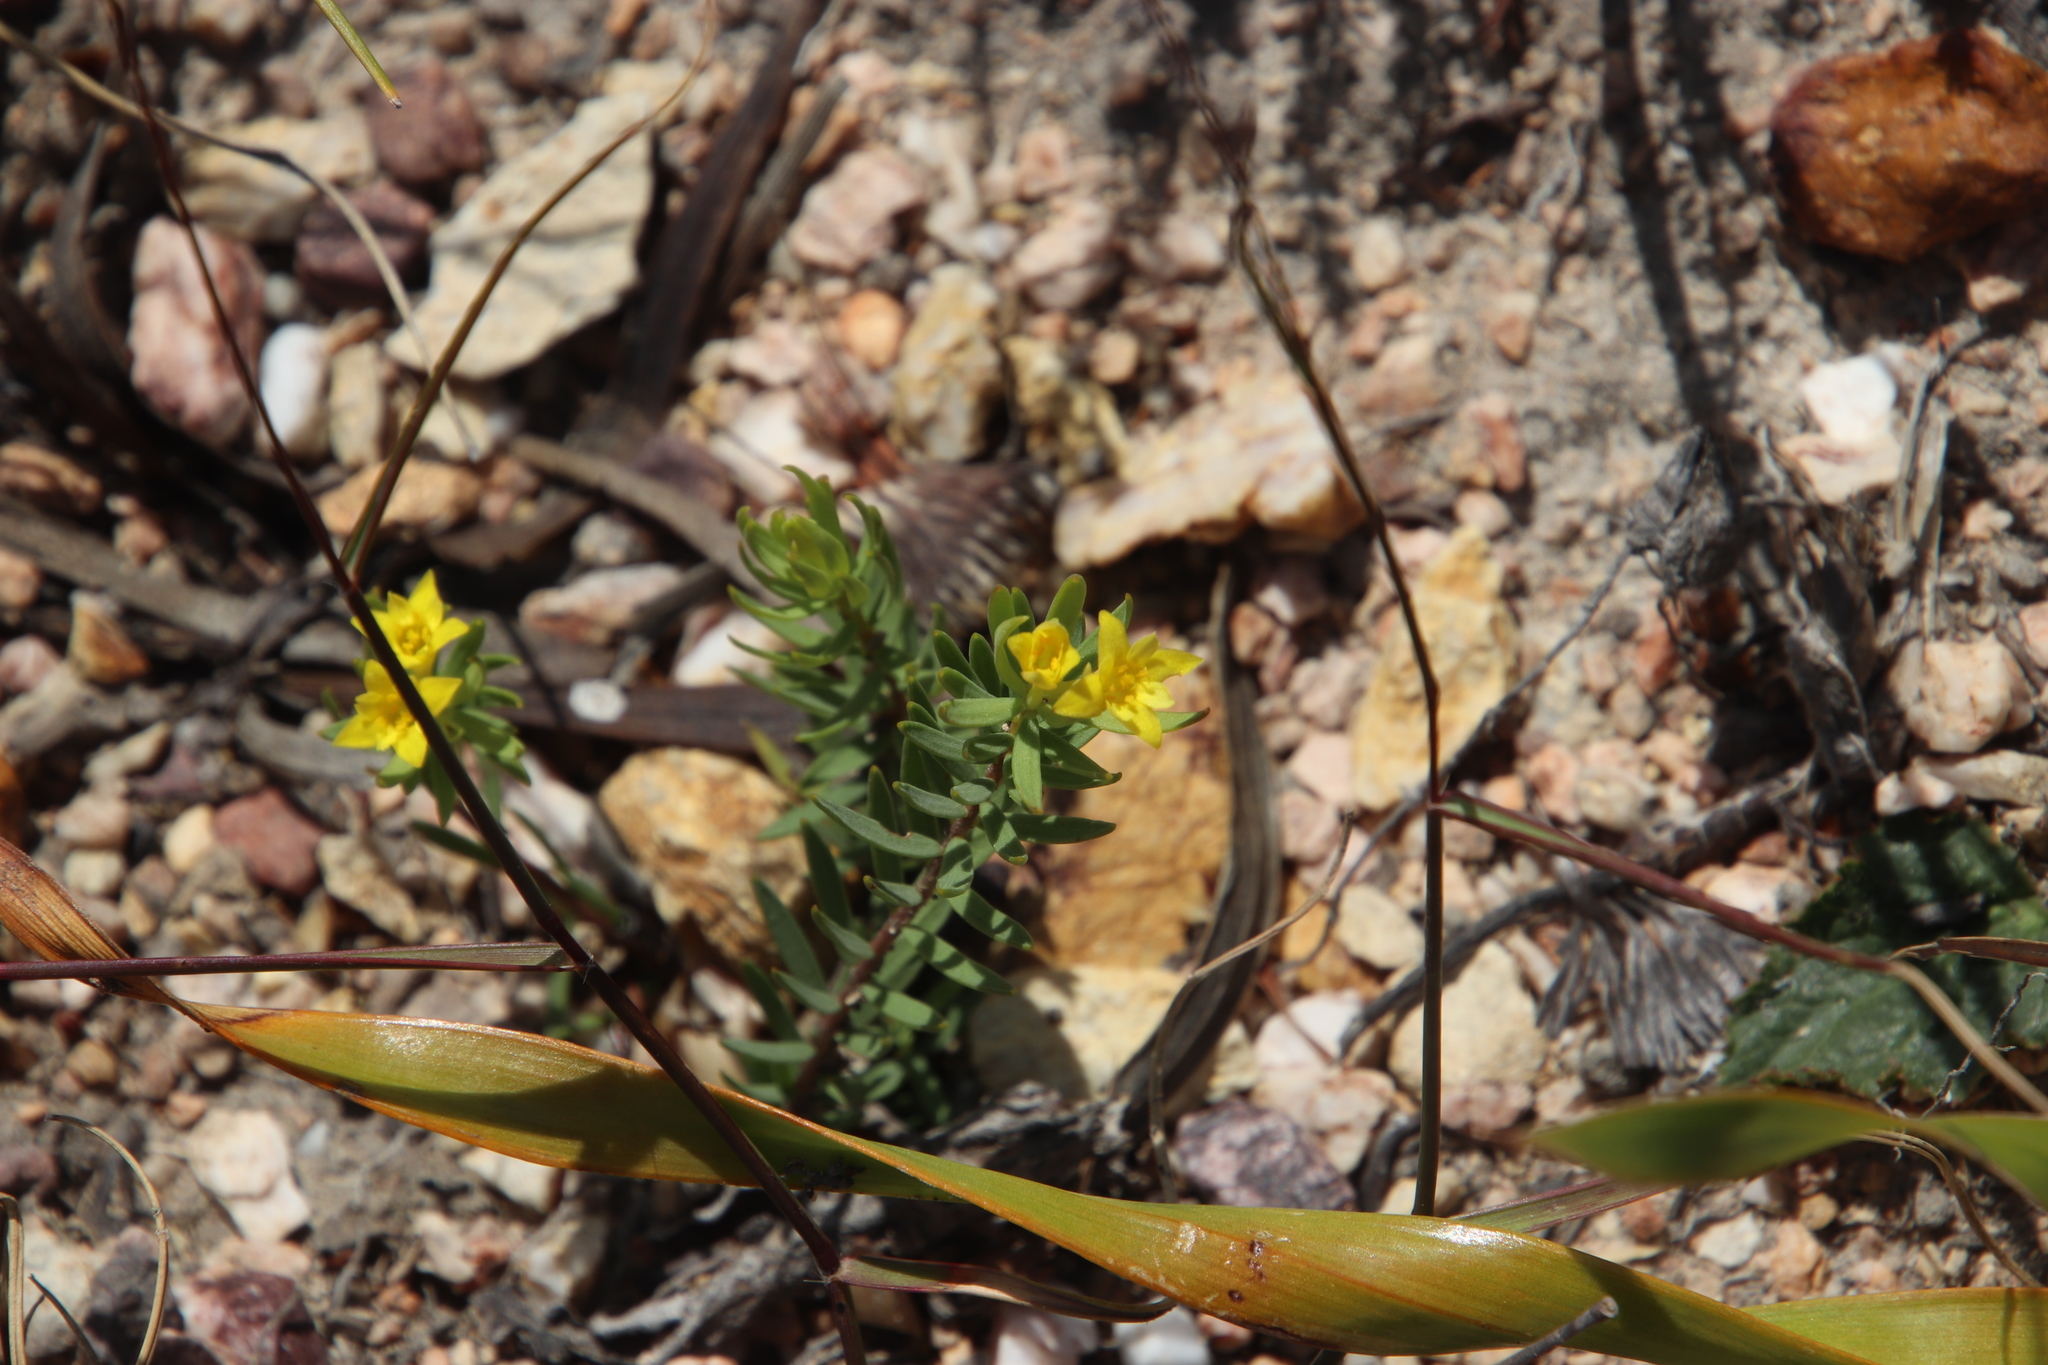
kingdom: Plantae
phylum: Tracheophyta
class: Magnoliopsida
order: Malvales
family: Thymelaeaceae
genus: Gnidia
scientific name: Gnidia simplex
